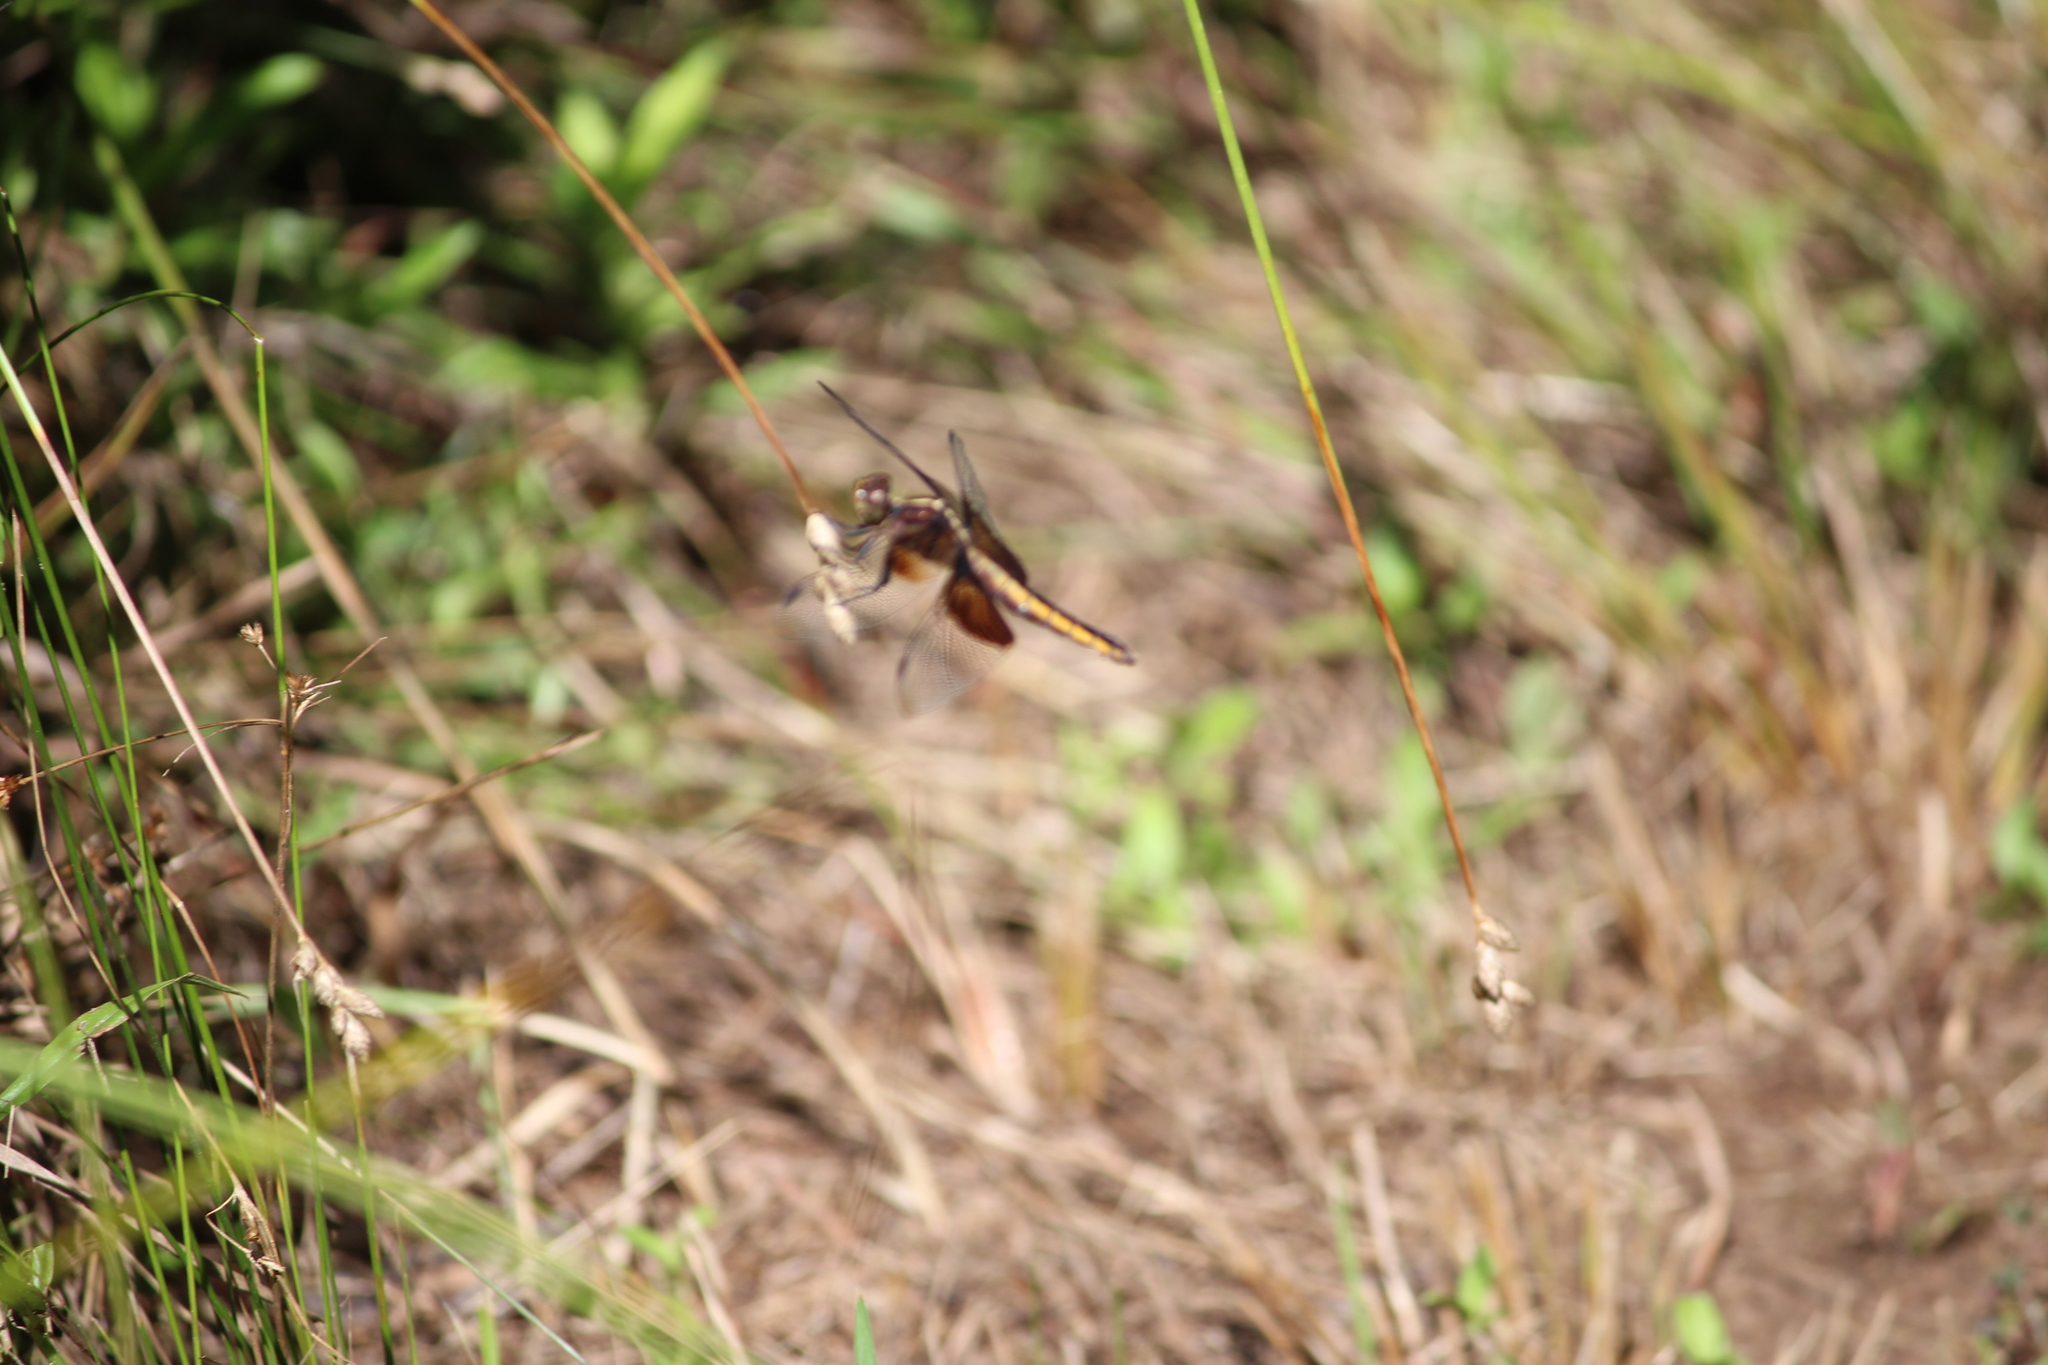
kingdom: Animalia
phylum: Arthropoda
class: Insecta
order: Odonata
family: Libellulidae
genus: Libellula
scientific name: Libellula luctuosa
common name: Widow skimmer
